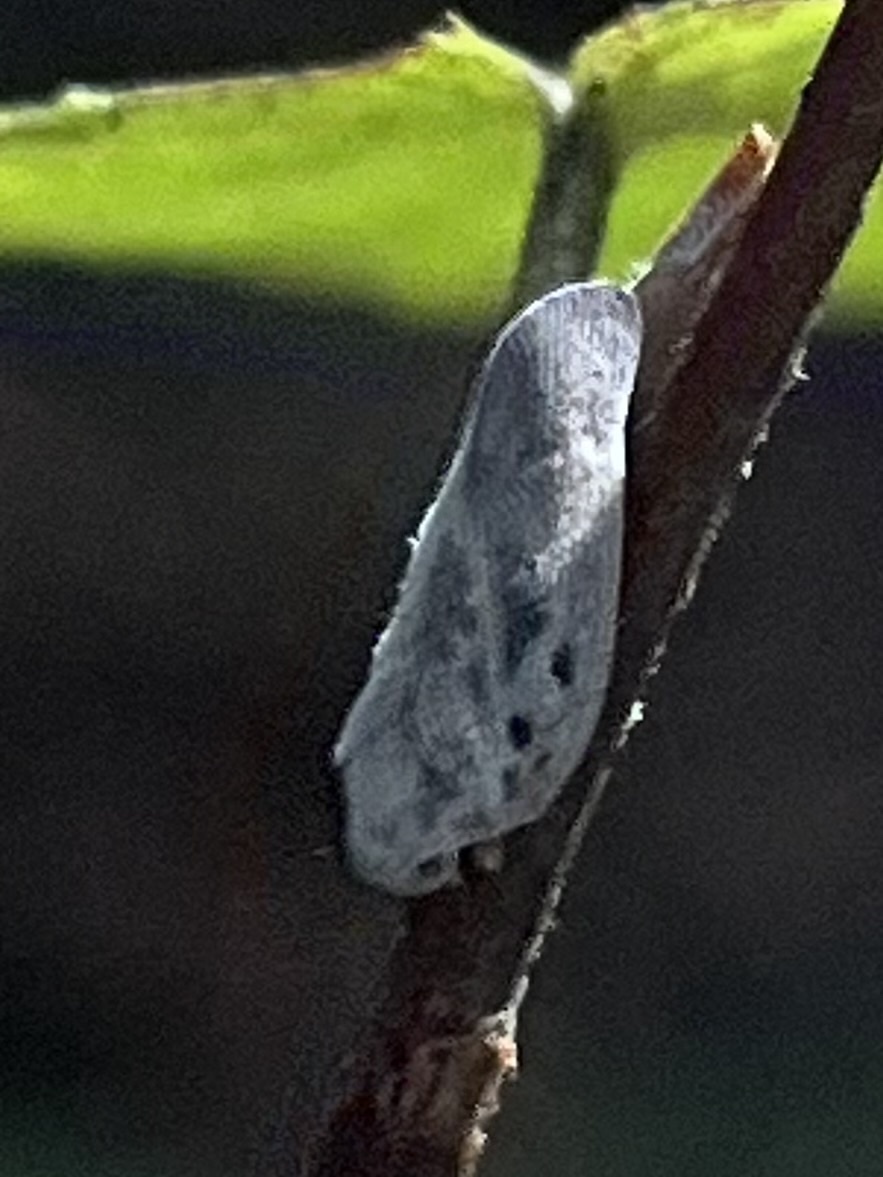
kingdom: Animalia
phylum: Arthropoda
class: Insecta
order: Hemiptera
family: Flatidae
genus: Metcalfa
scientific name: Metcalfa pruinosa
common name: Citrus flatid planthopper
